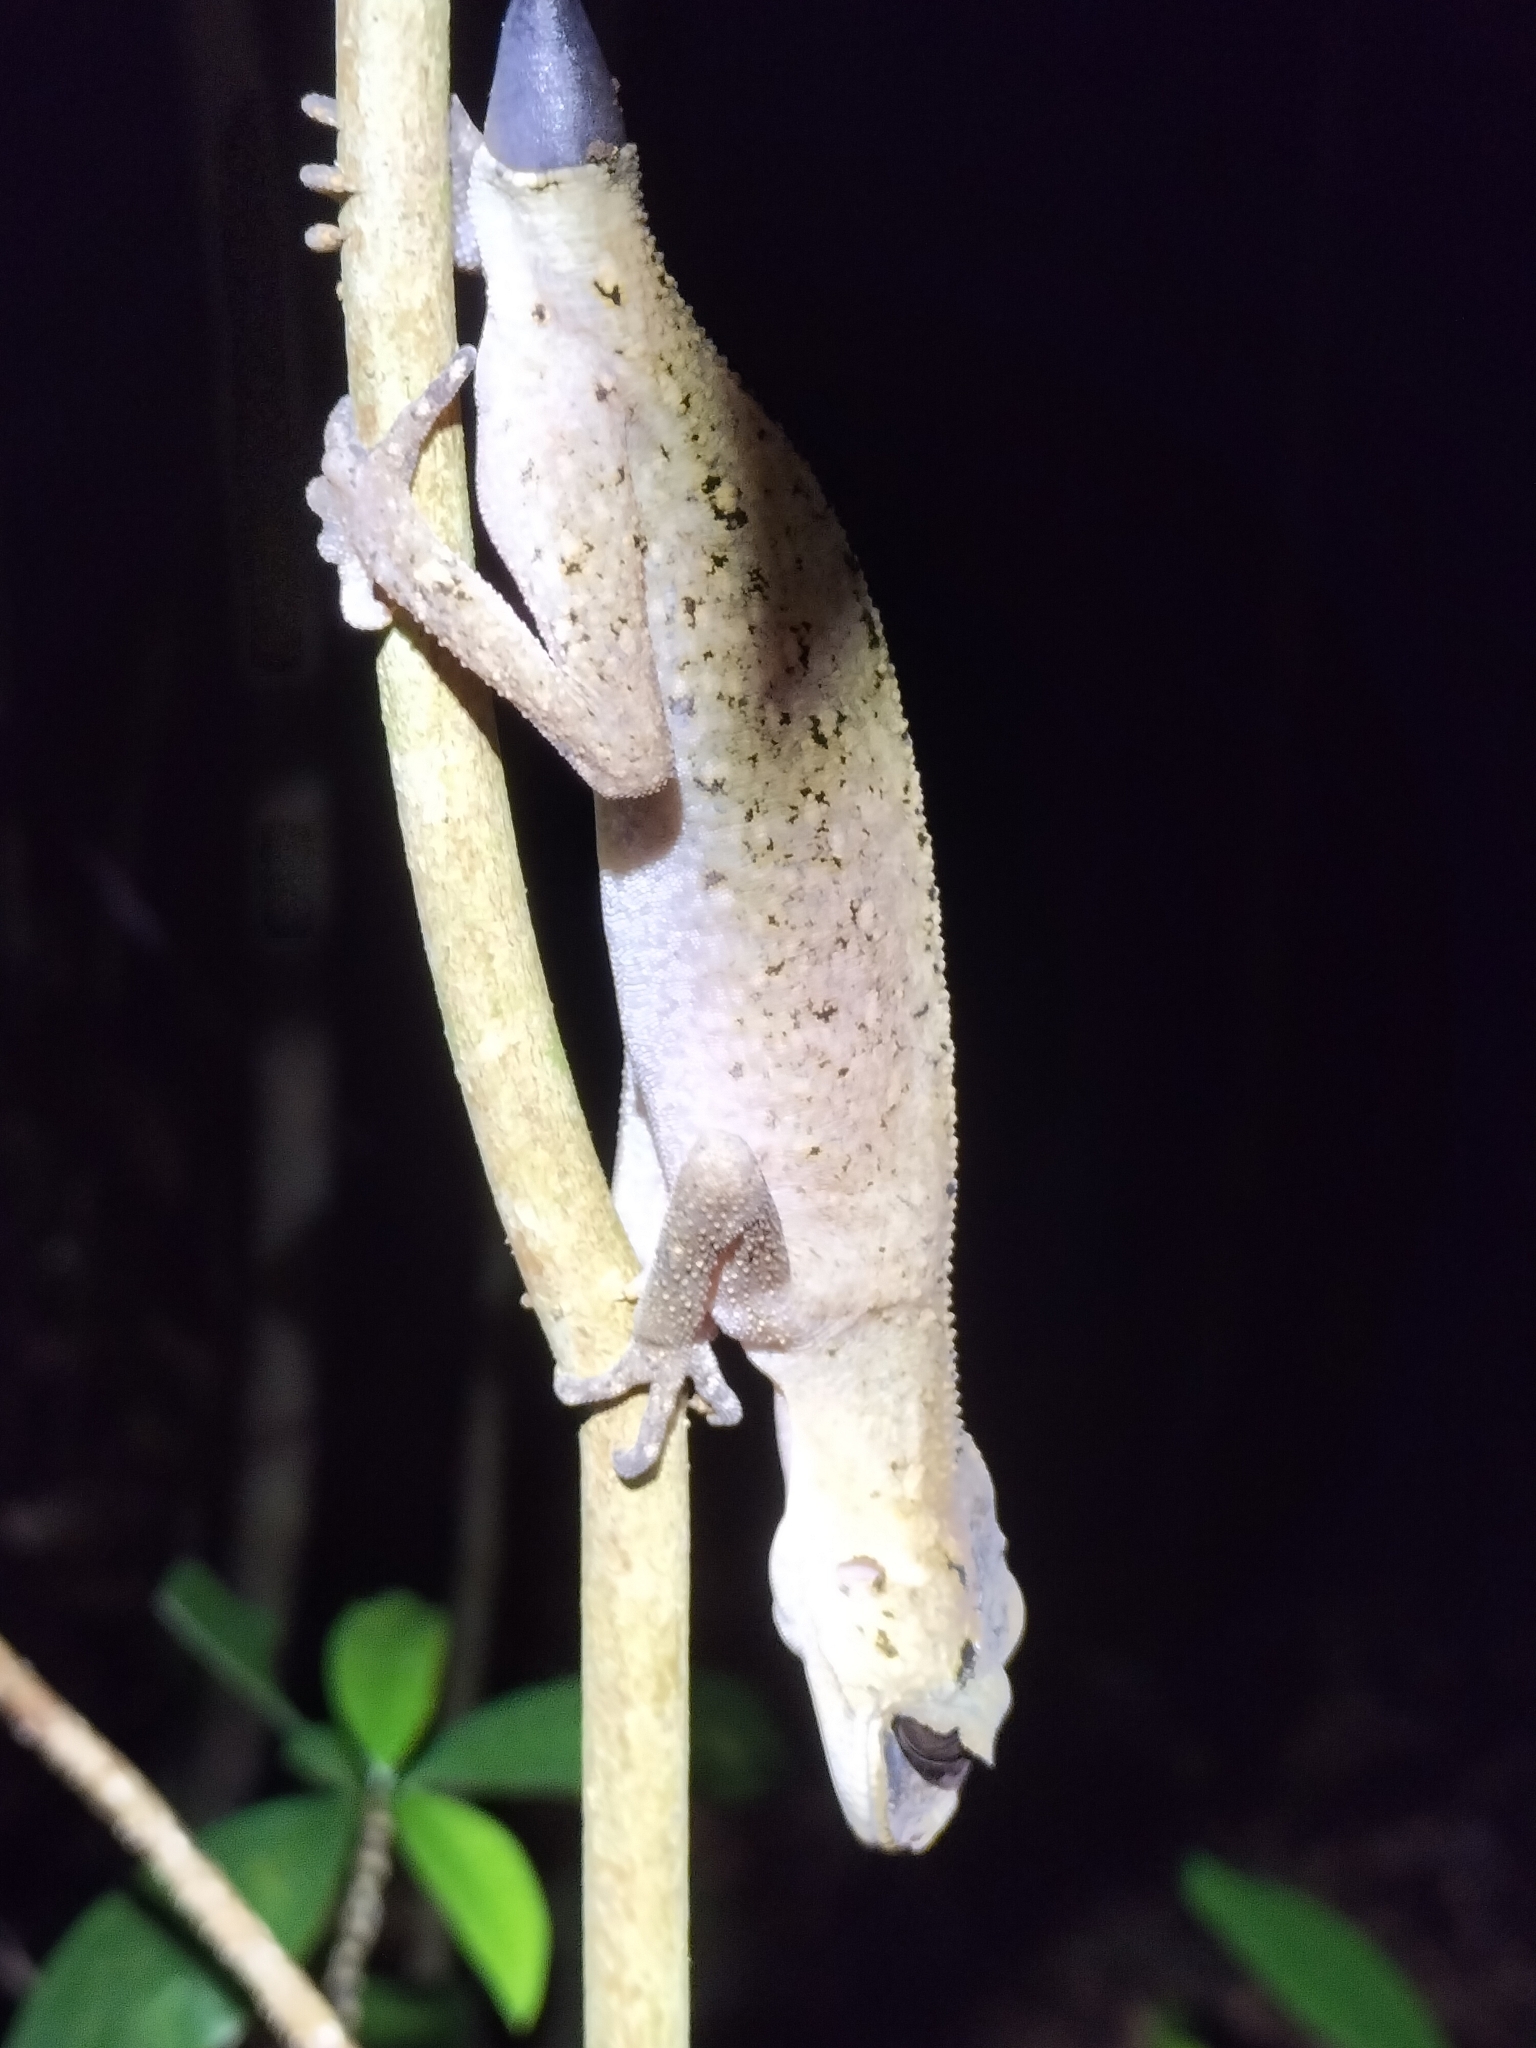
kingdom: Animalia
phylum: Chordata
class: Squamata
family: Carphodactylidae
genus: Carphodactylus
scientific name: Carphodactylus laevis
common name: Chameleon gecko
